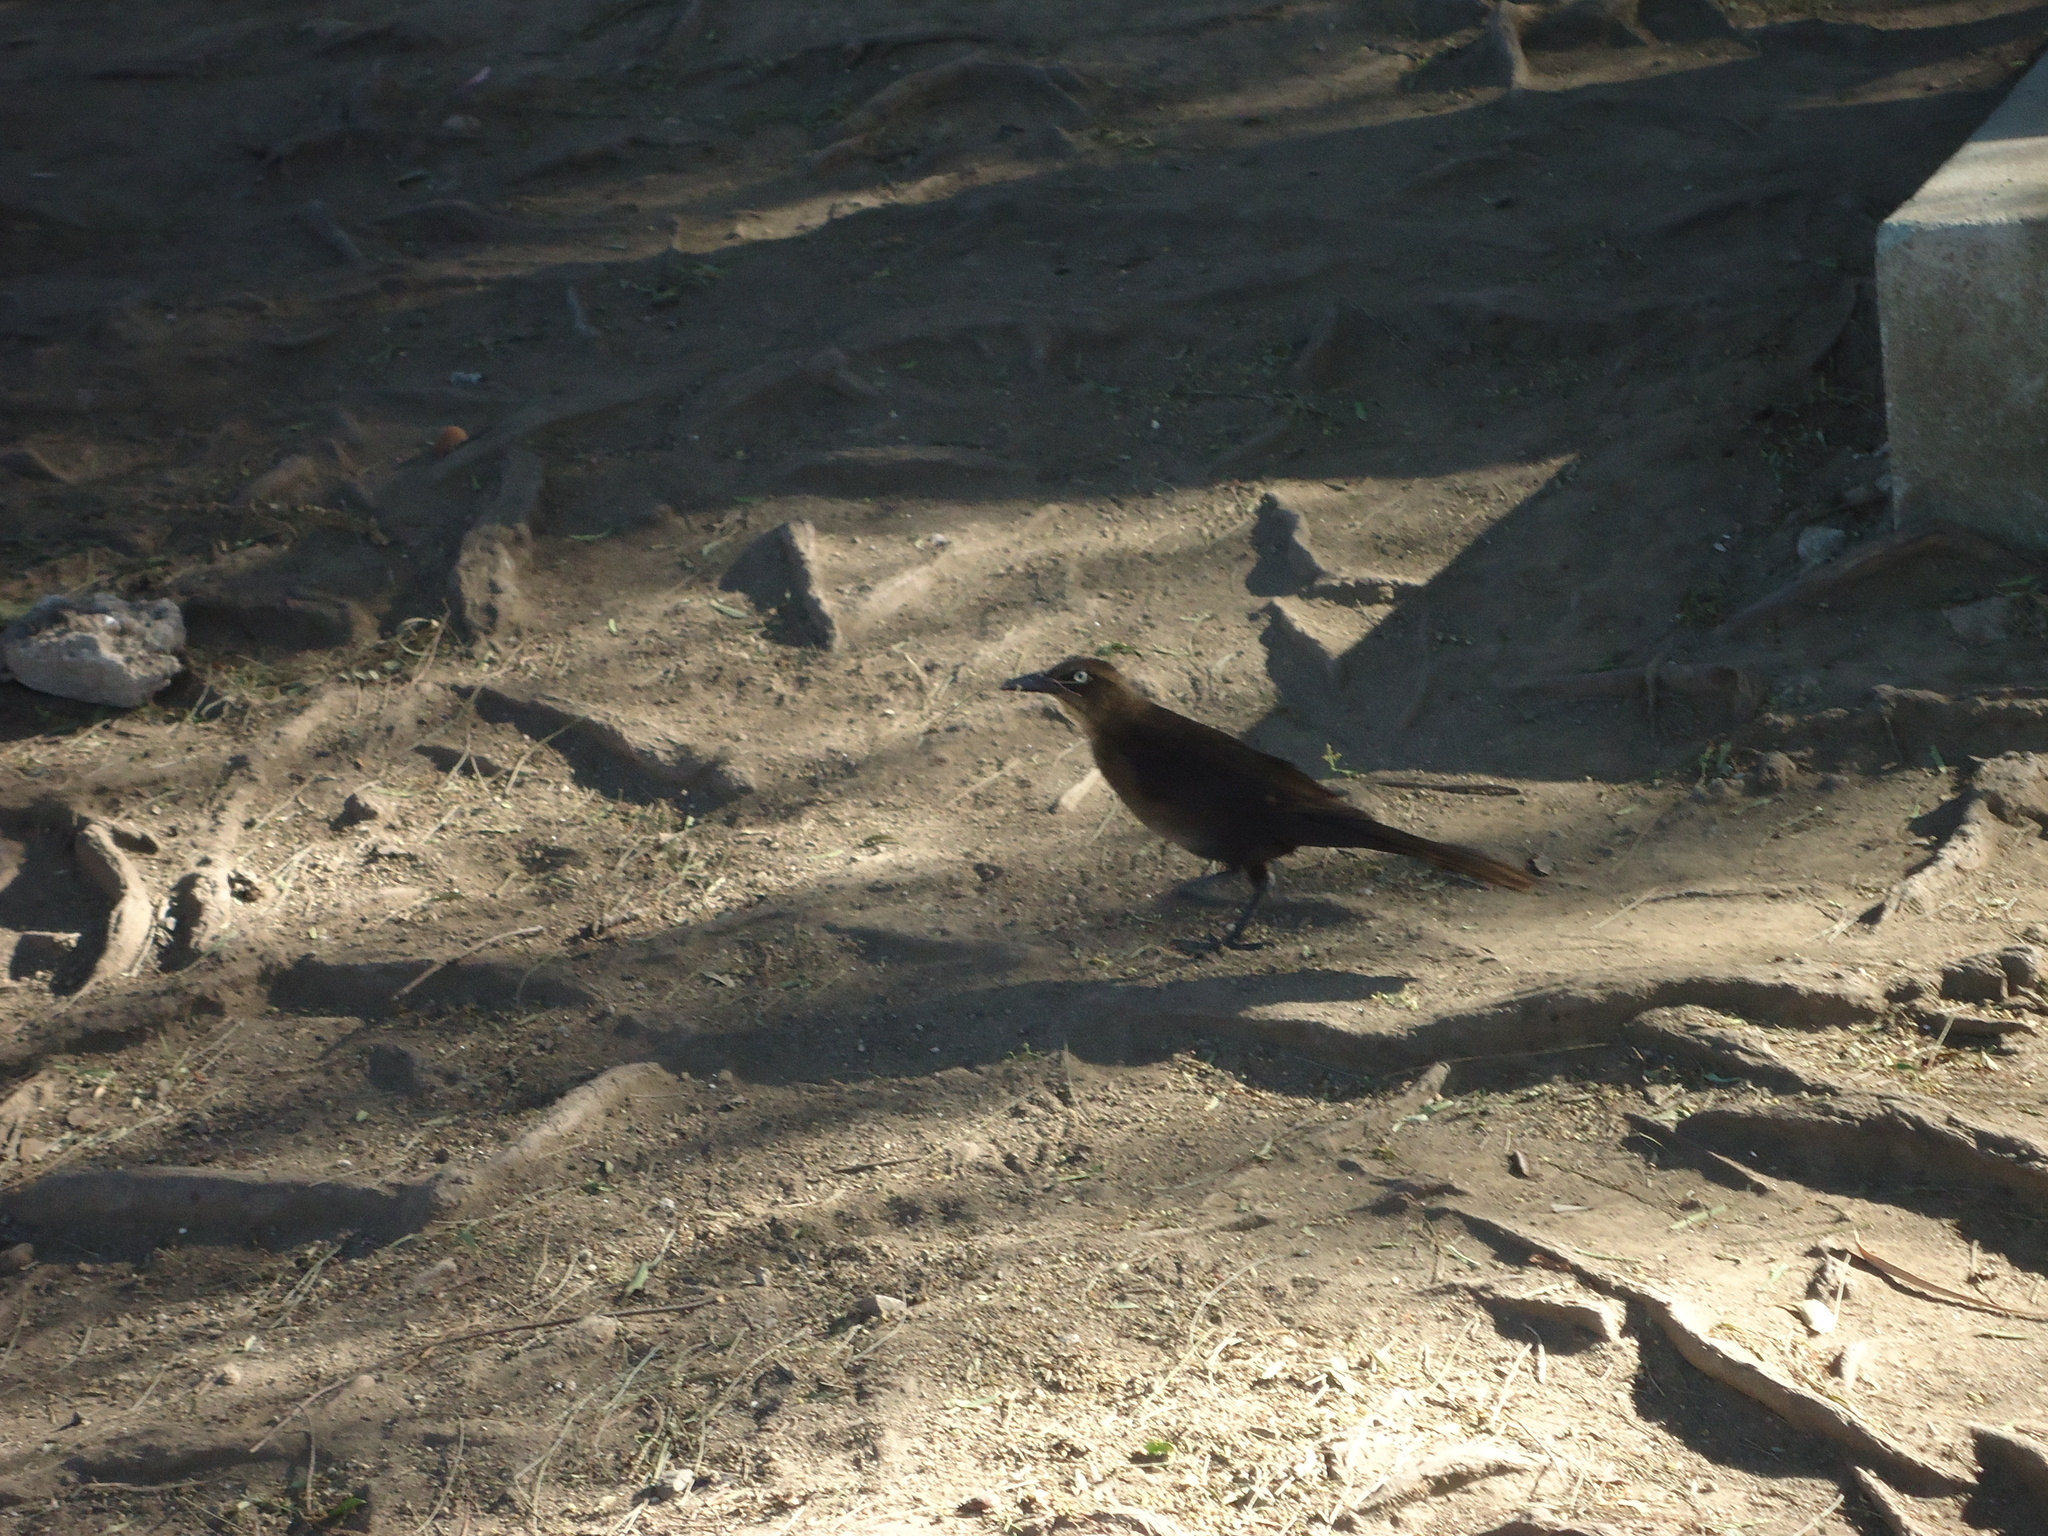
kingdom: Animalia
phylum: Chordata
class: Aves
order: Passeriformes
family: Icteridae
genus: Quiscalus
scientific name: Quiscalus mexicanus
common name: Great-tailed grackle
